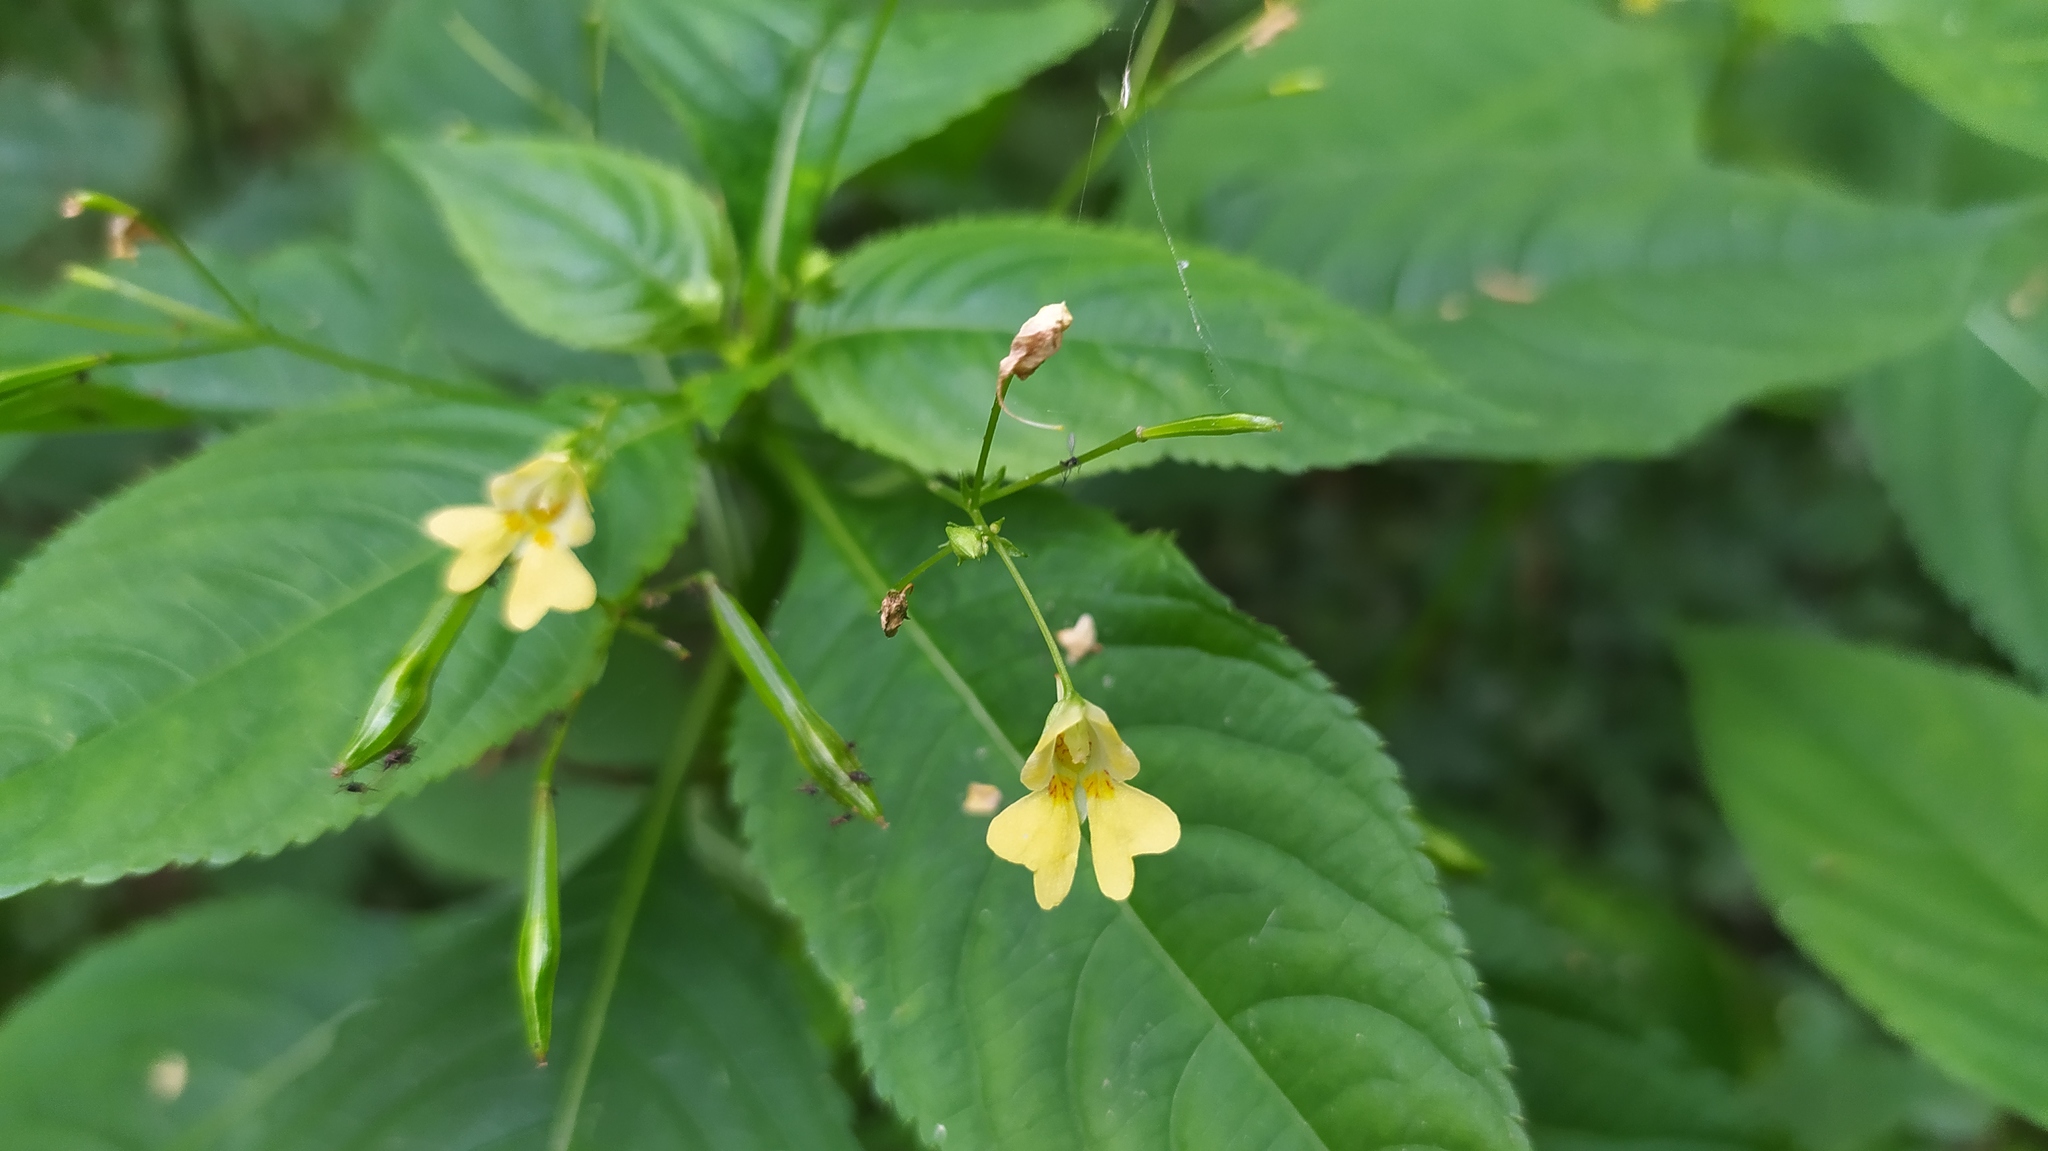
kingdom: Plantae
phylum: Tracheophyta
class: Magnoliopsida
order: Ericales
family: Balsaminaceae
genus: Impatiens
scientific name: Impatiens parviflora
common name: Small balsam
